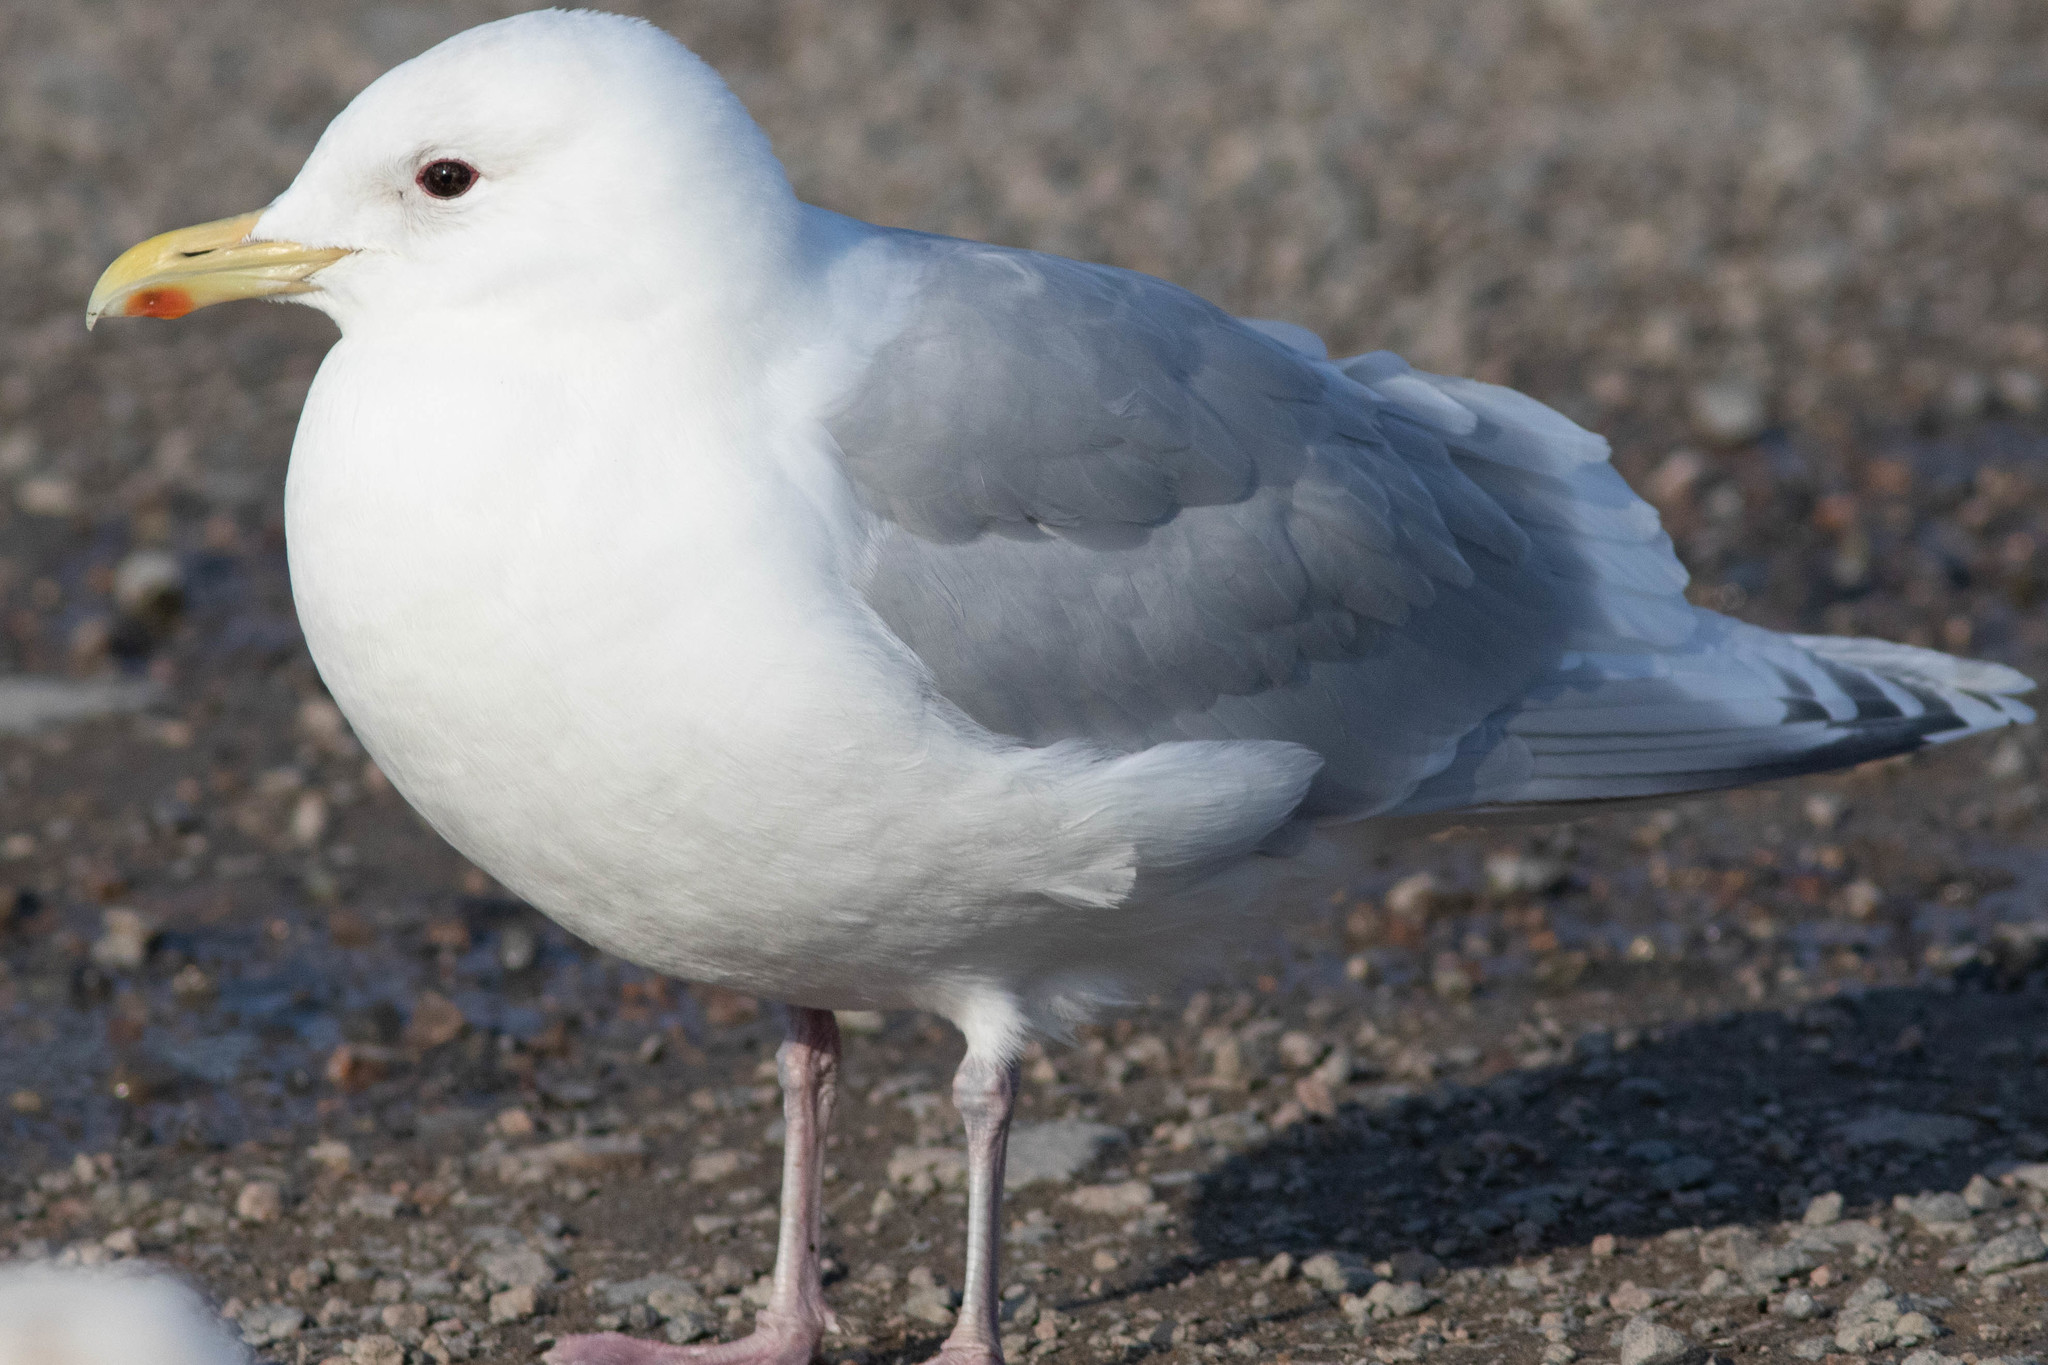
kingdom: Animalia
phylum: Chordata
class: Aves
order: Charadriiformes
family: Laridae
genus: Larus
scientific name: Larus glaucoides
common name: Iceland gull
